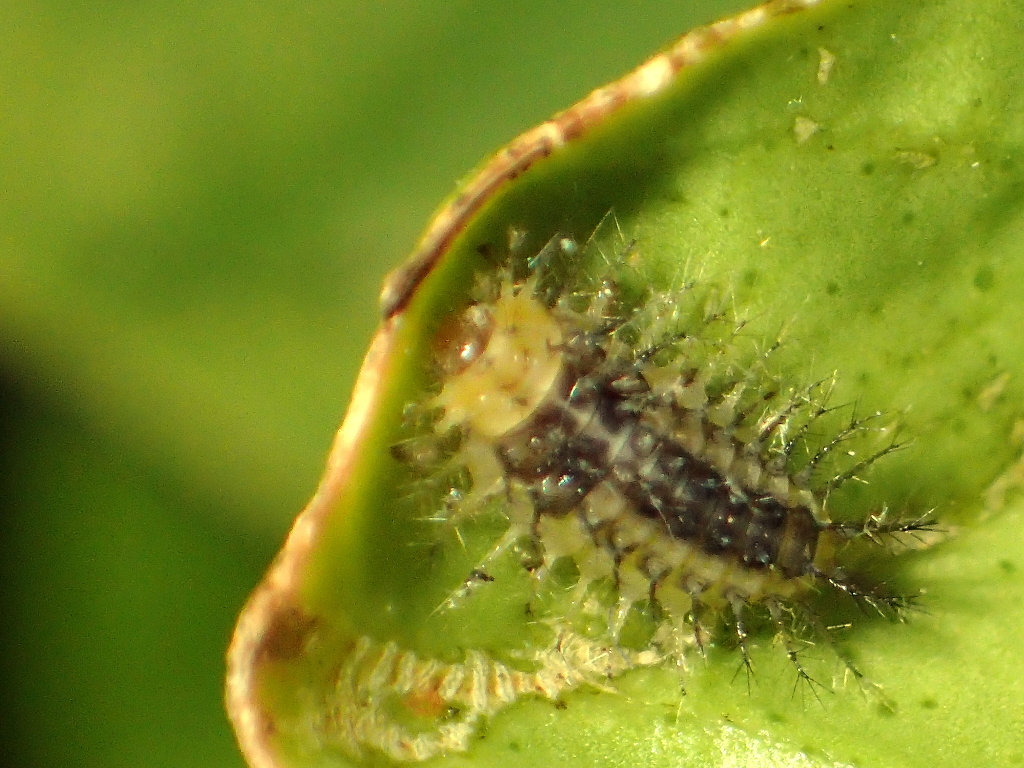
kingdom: Animalia
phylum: Arthropoda
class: Insecta
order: Coleoptera
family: Coccinellidae
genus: Halmus
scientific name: Halmus chalybeus
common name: Steel blue ladybird beetle
